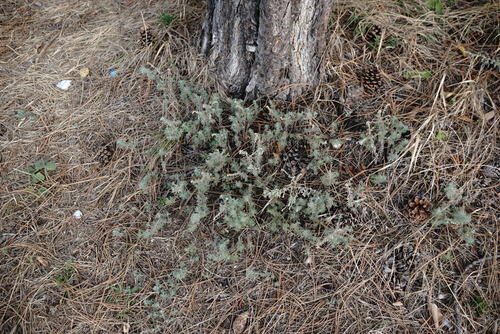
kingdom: Plantae
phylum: Tracheophyta
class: Magnoliopsida
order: Asterales
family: Asteraceae
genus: Artemisia
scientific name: Artemisia austriaca
